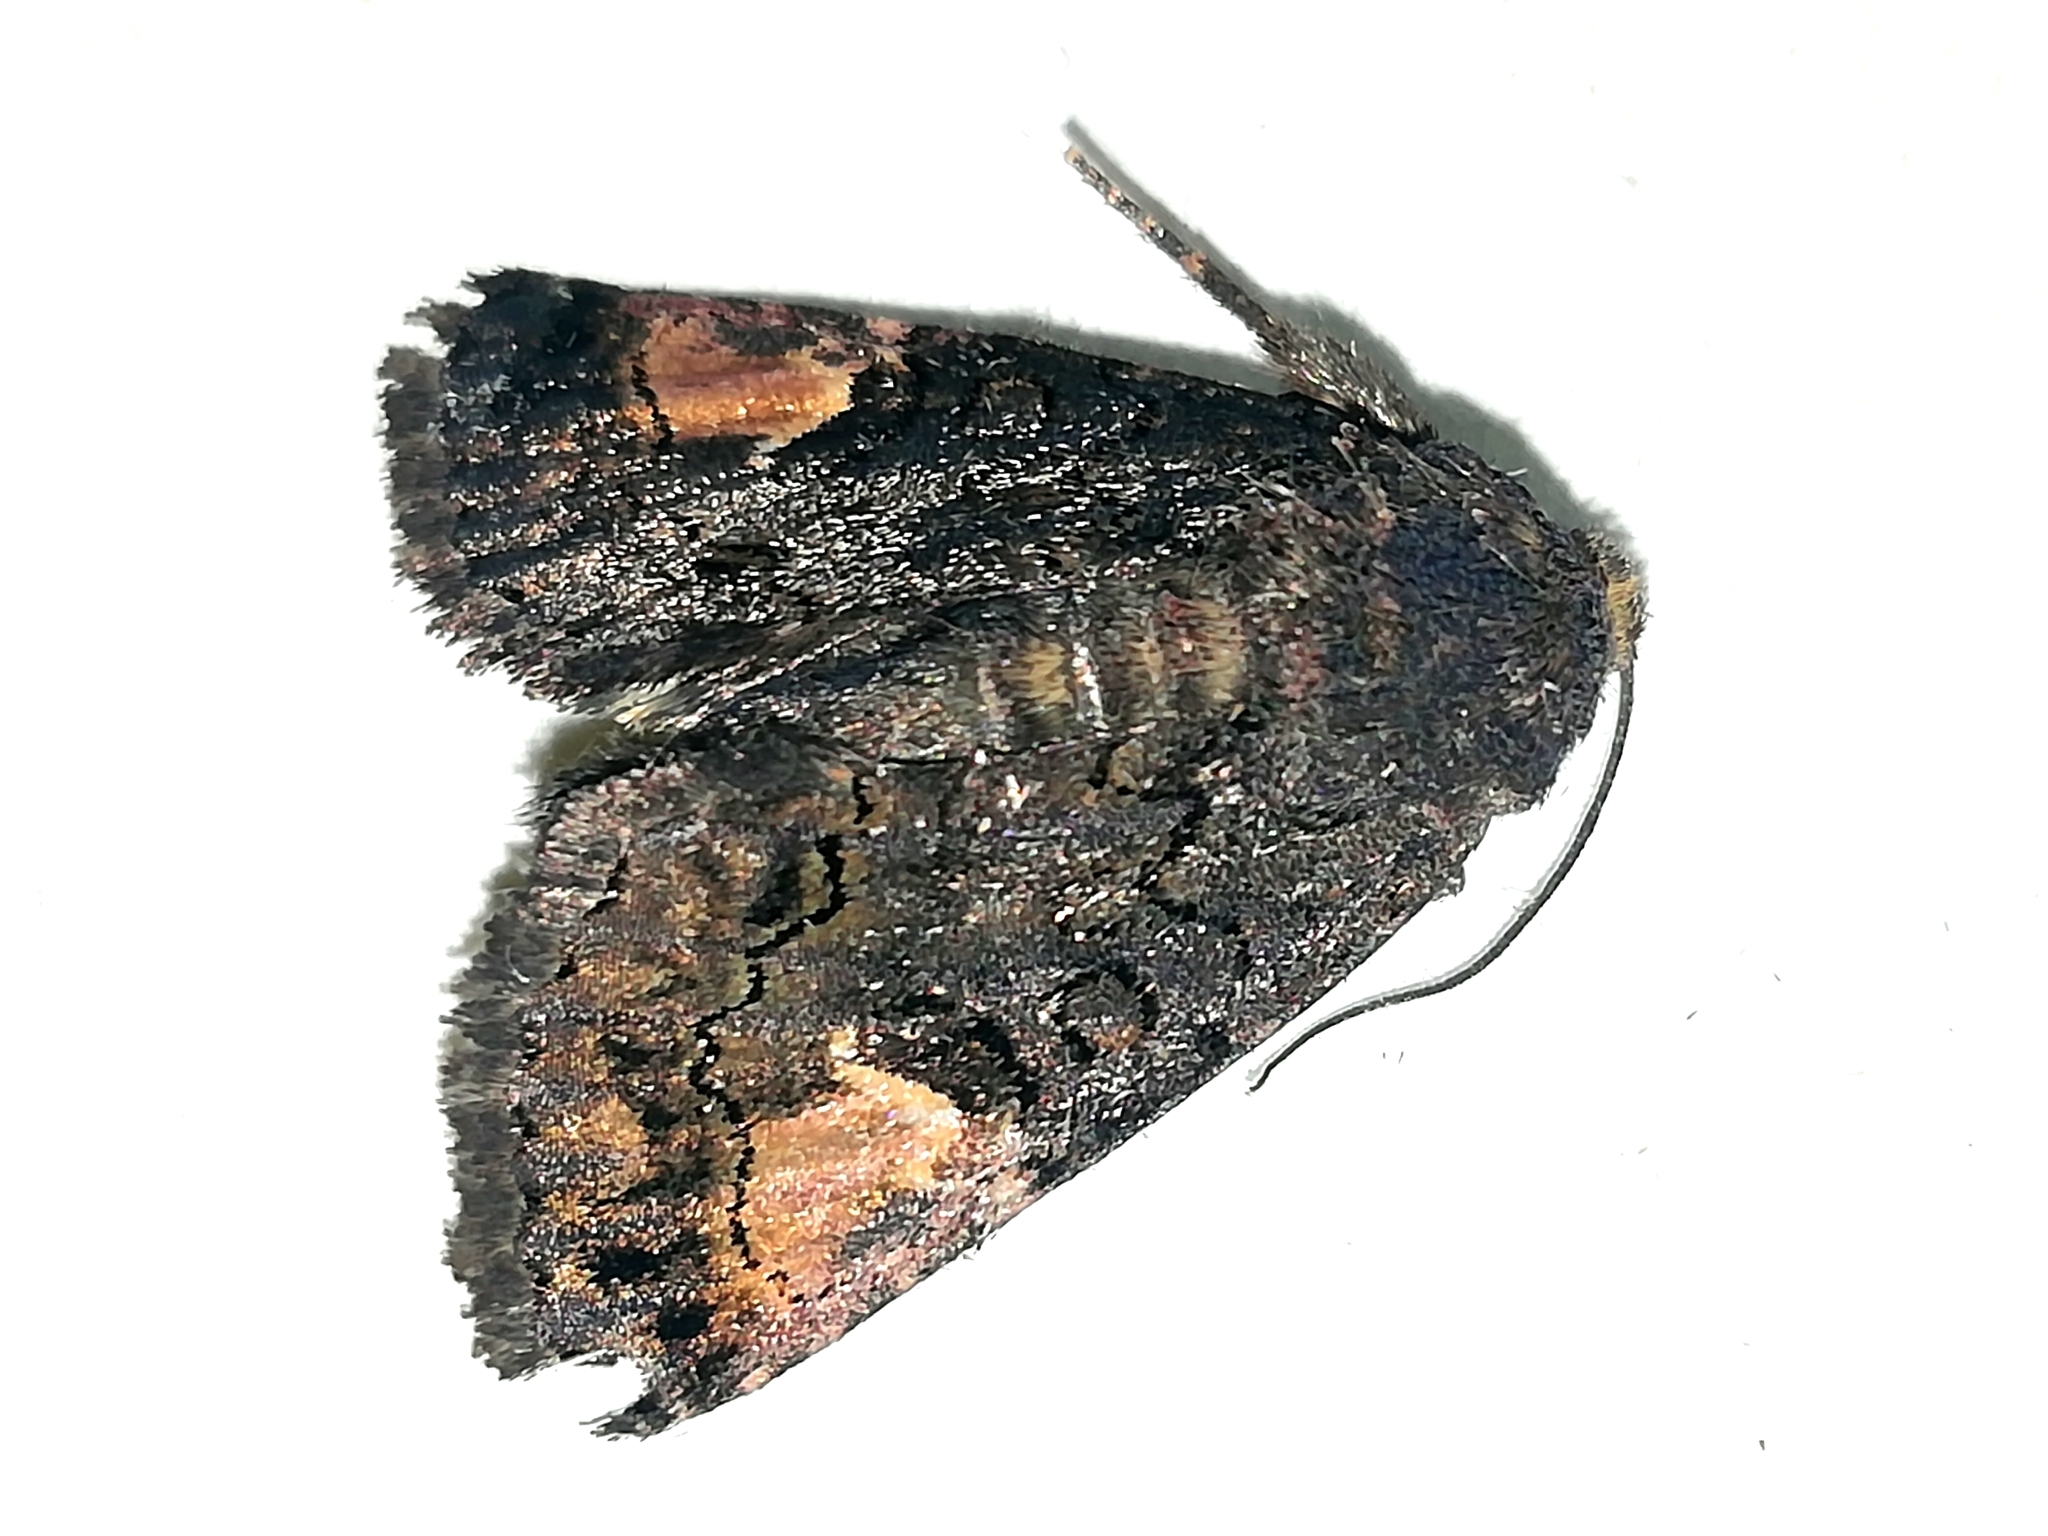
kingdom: Animalia
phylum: Arthropoda
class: Insecta
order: Lepidoptera
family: Noctuidae
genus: Aedia
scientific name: Aedia funesta
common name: The druid
